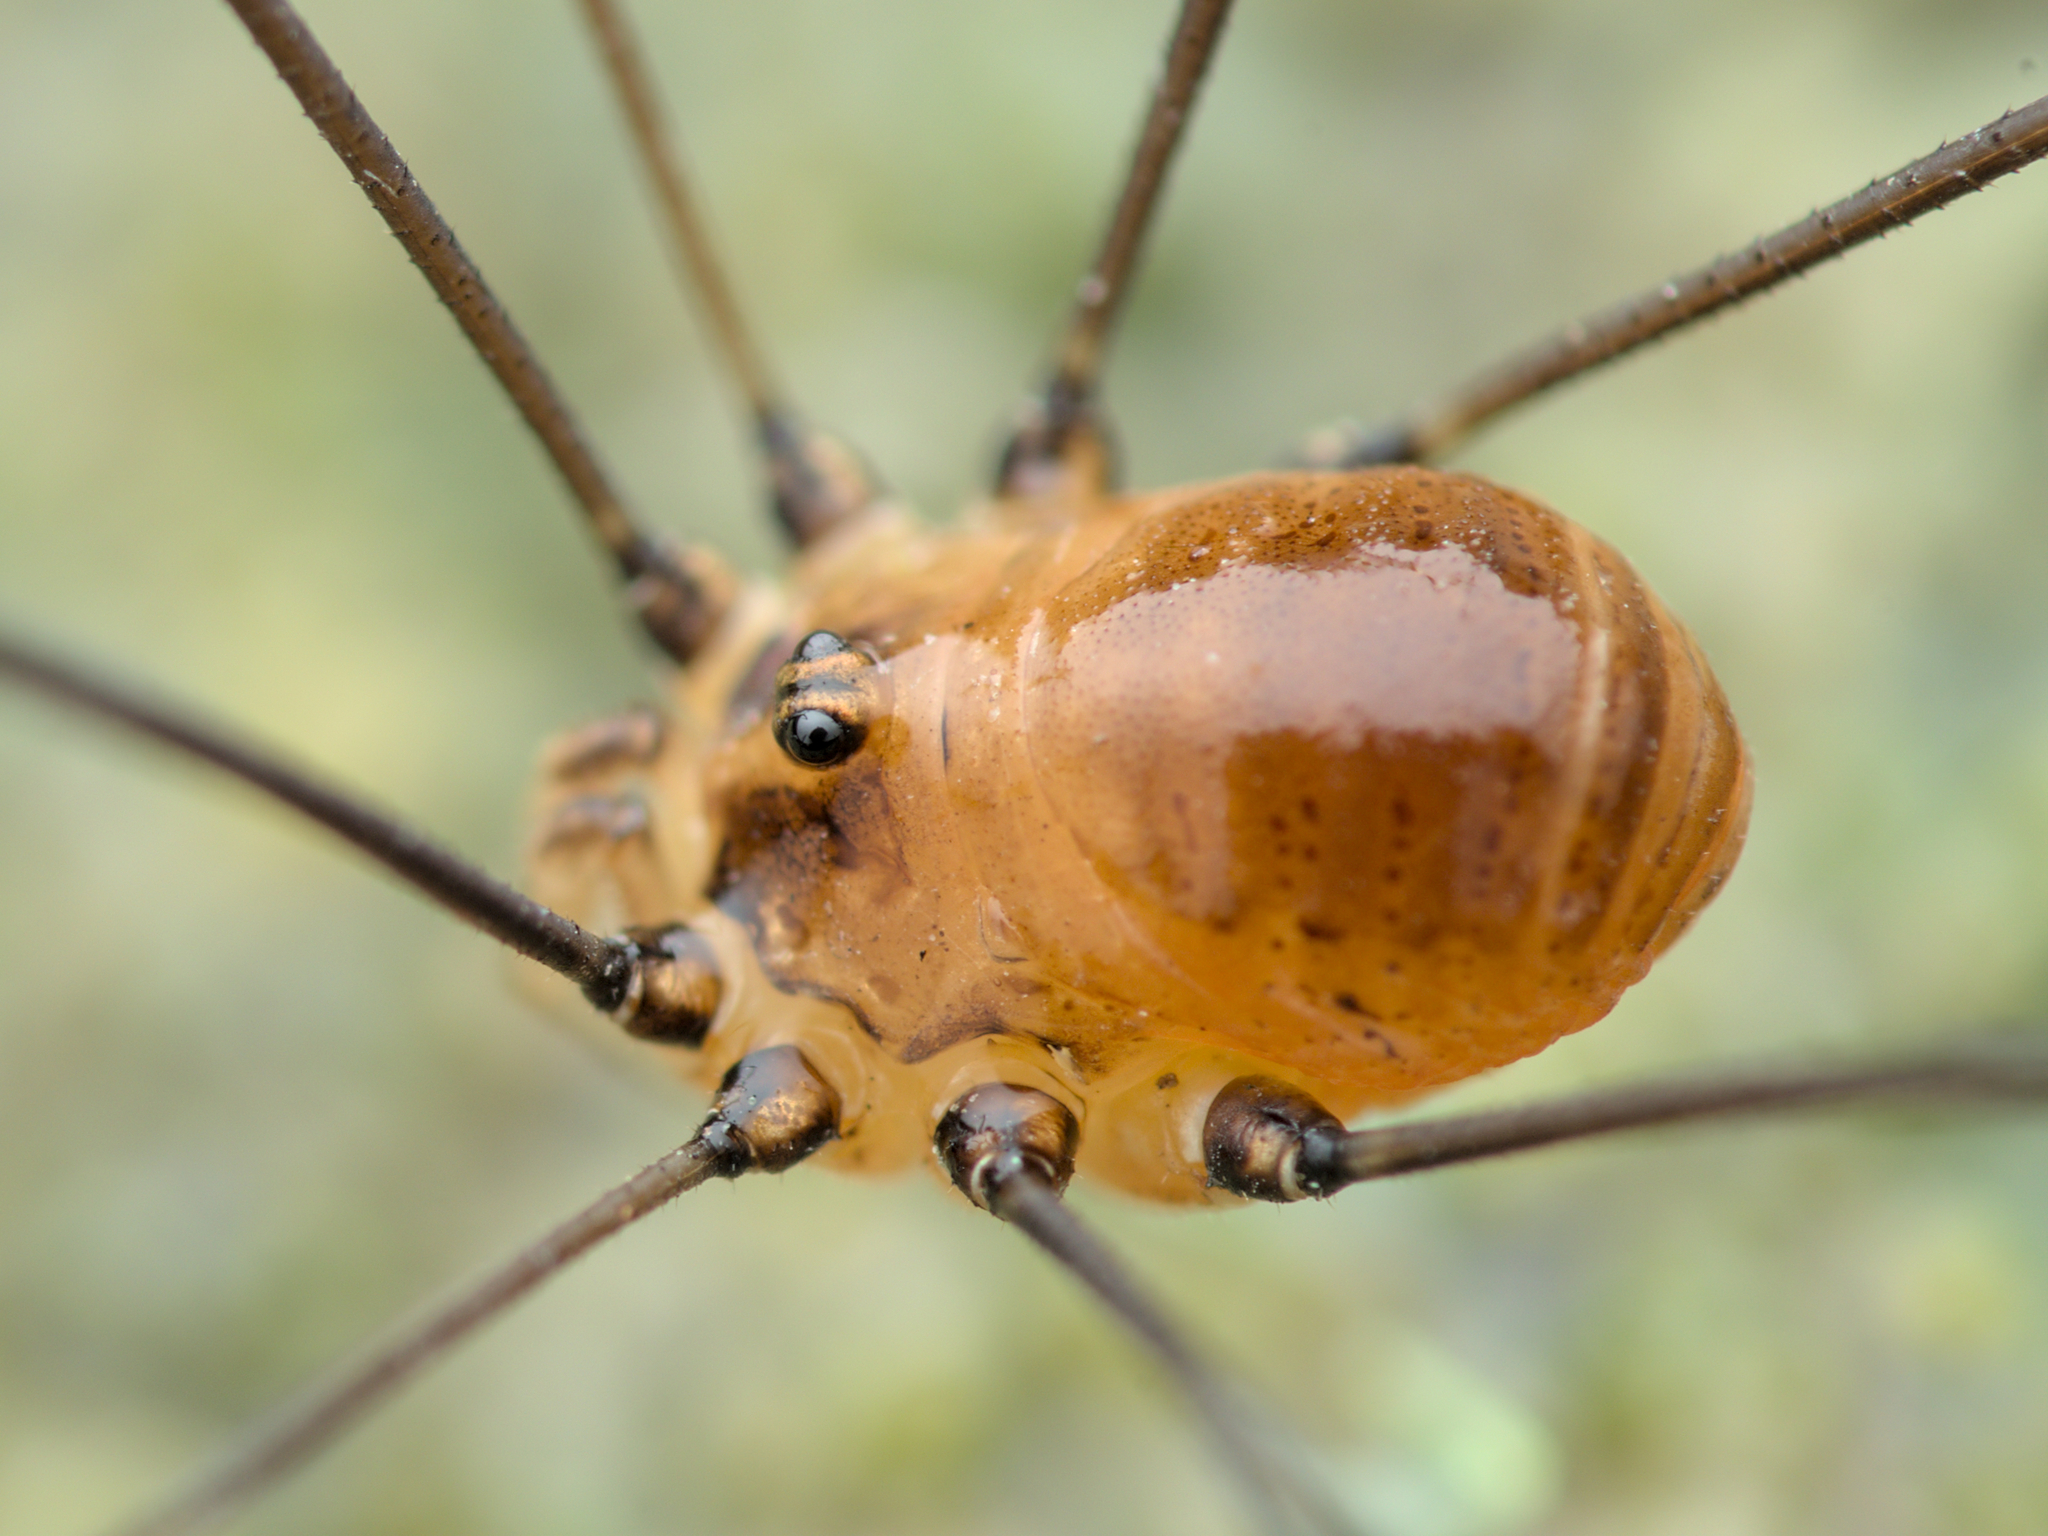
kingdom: Animalia
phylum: Arthropoda
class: Arachnida
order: Opiliones
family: Sclerosomatidae
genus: Leiobunum
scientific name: Leiobunum blackwalli
